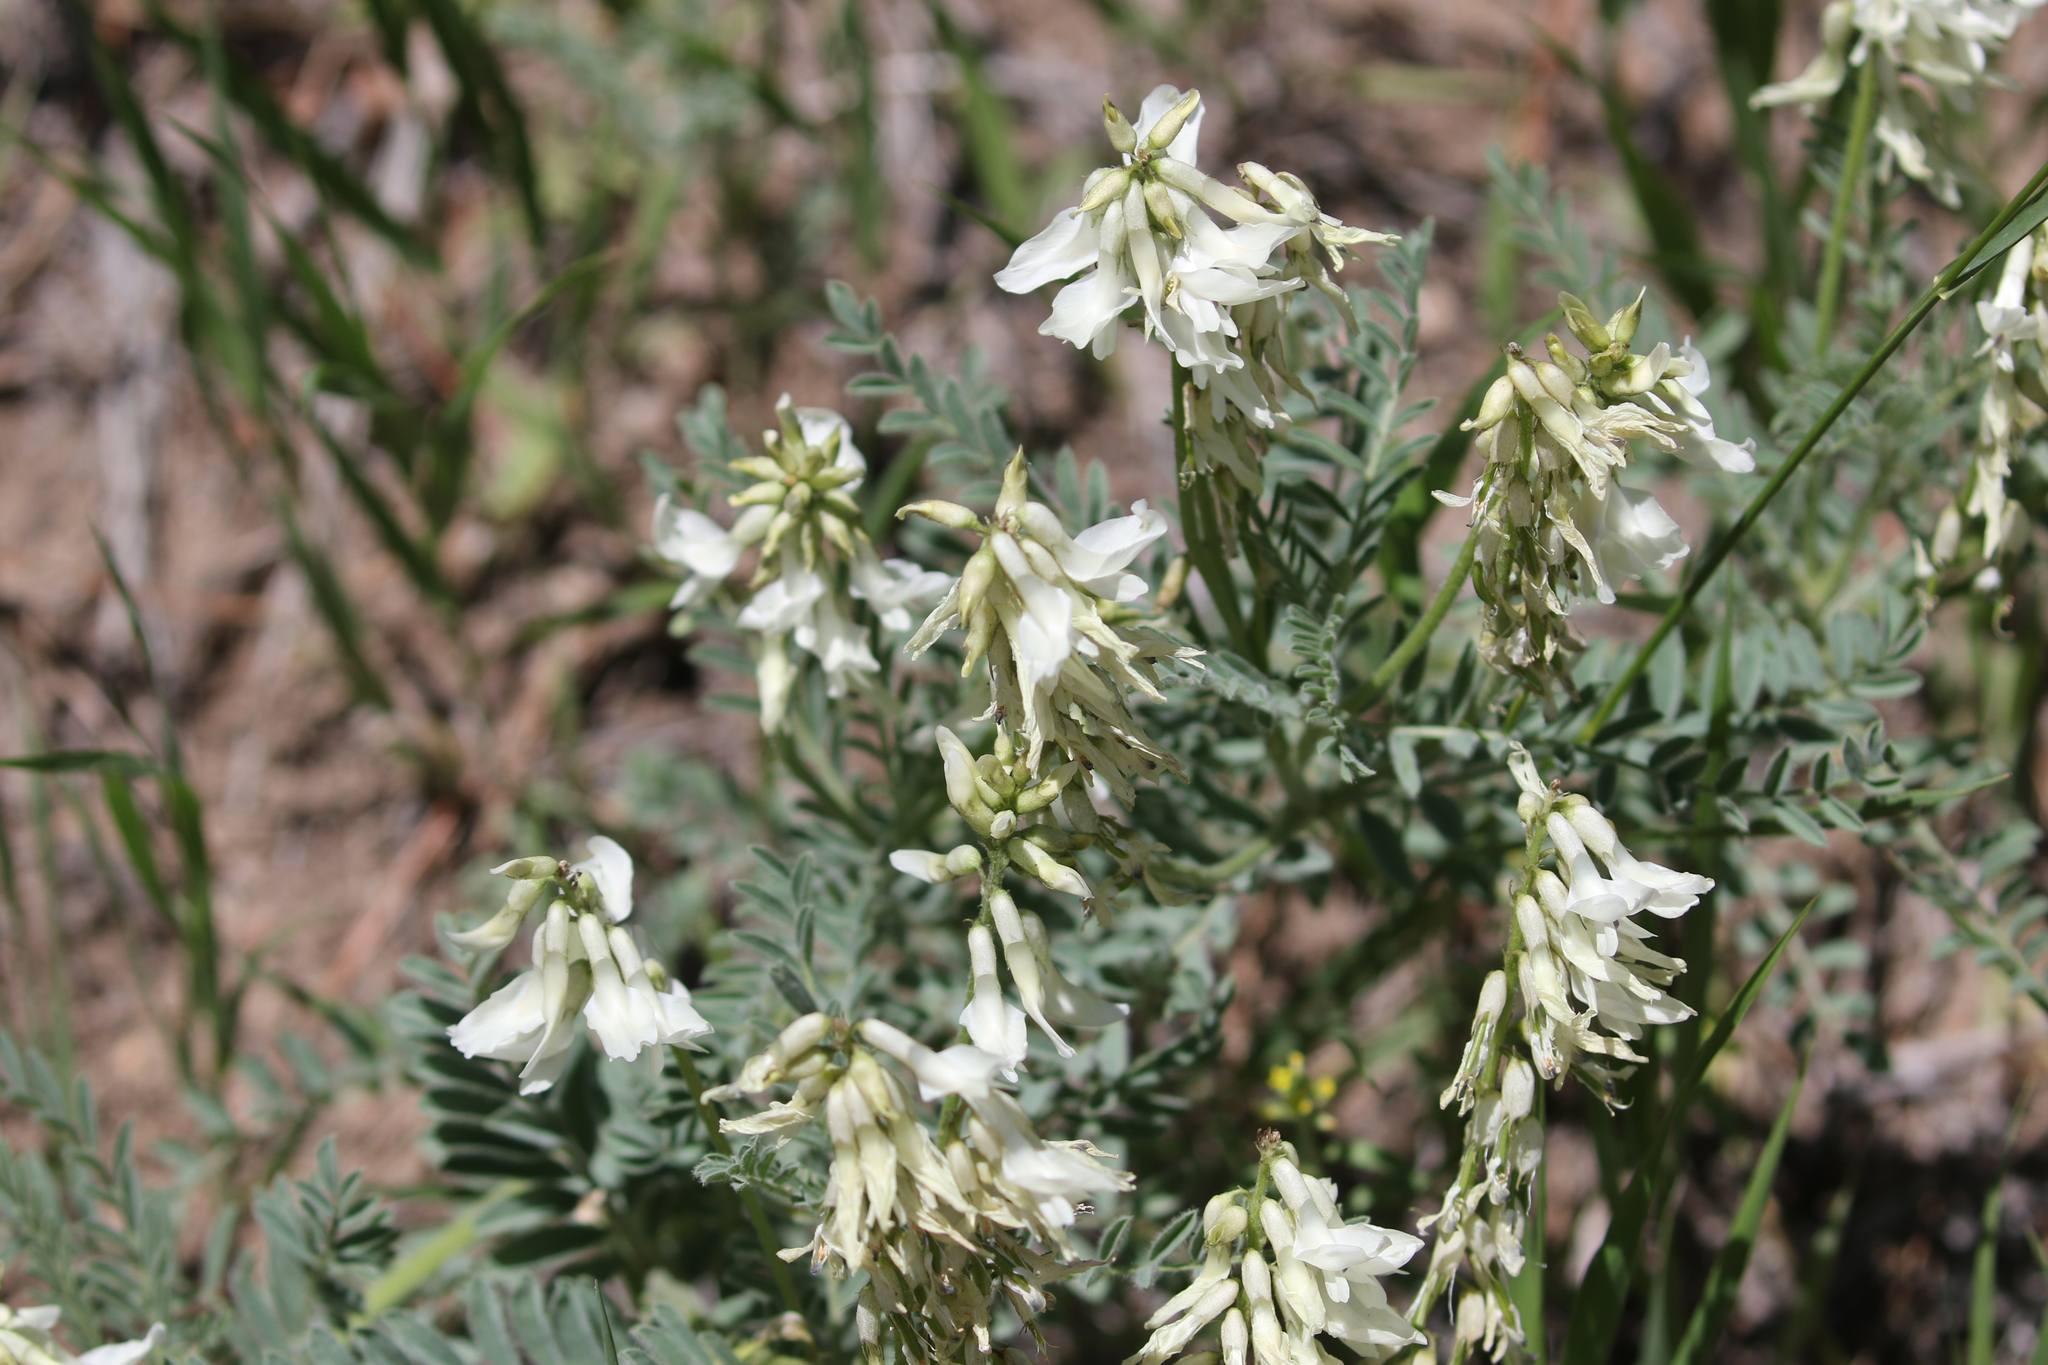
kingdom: Plantae
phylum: Tracheophyta
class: Magnoliopsida
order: Fabales
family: Fabaceae
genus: Astragalus
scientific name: Astragalus drummondii
